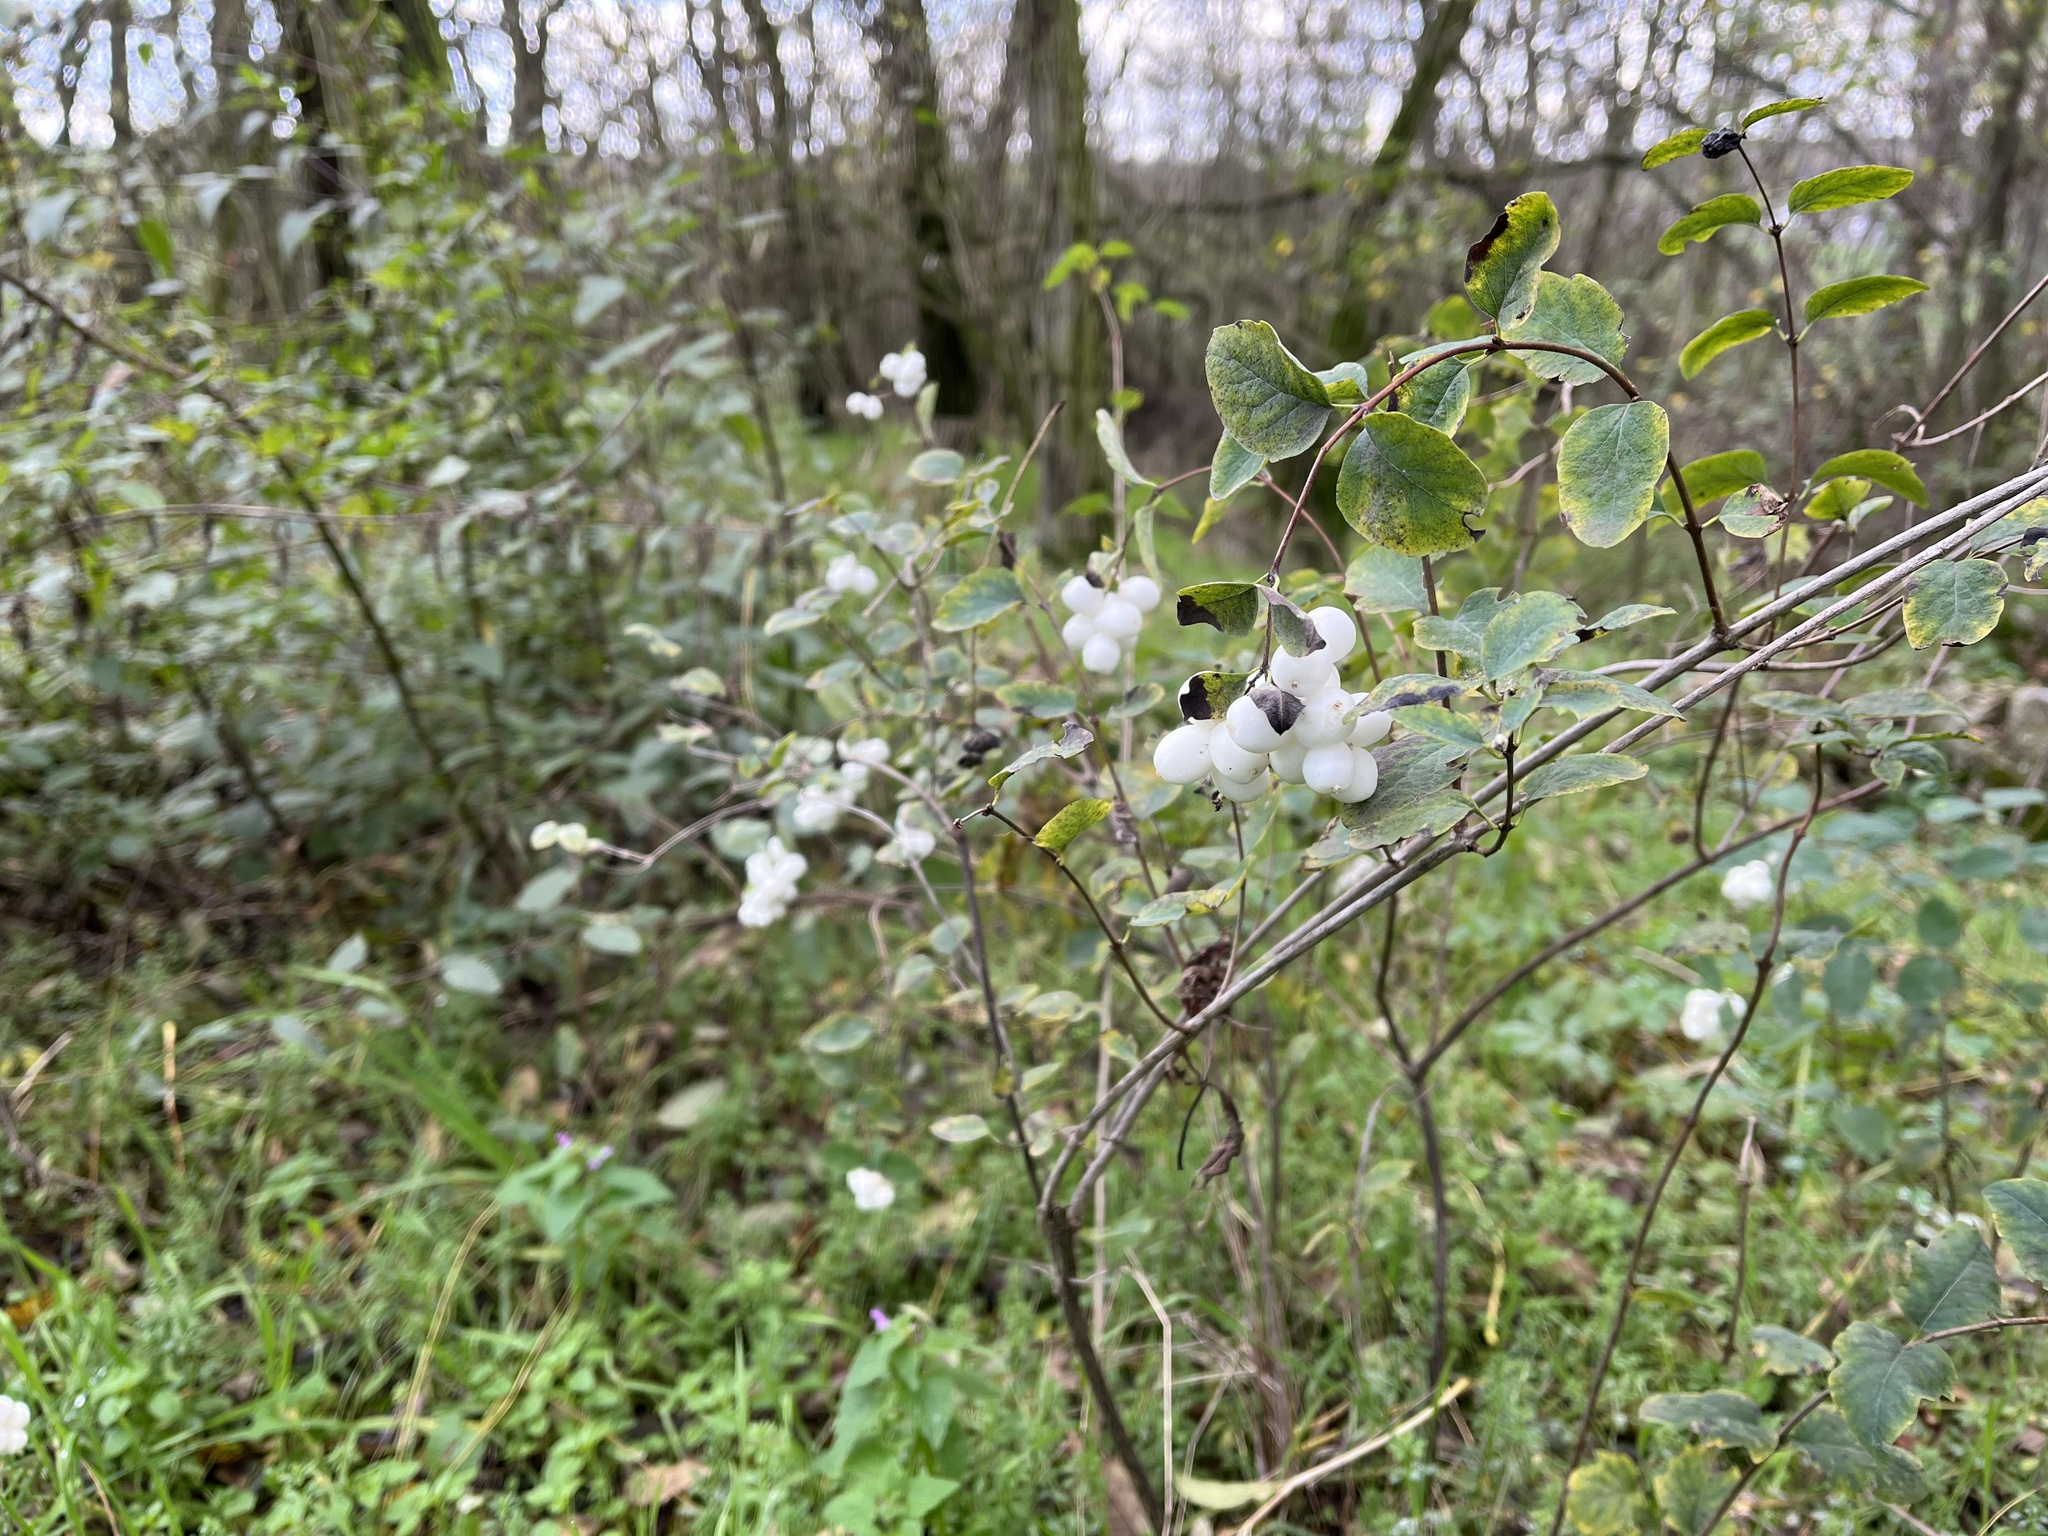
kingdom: Plantae
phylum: Tracheophyta
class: Magnoliopsida
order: Dipsacales
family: Caprifoliaceae
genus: Symphoricarpos
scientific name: Symphoricarpos albus
